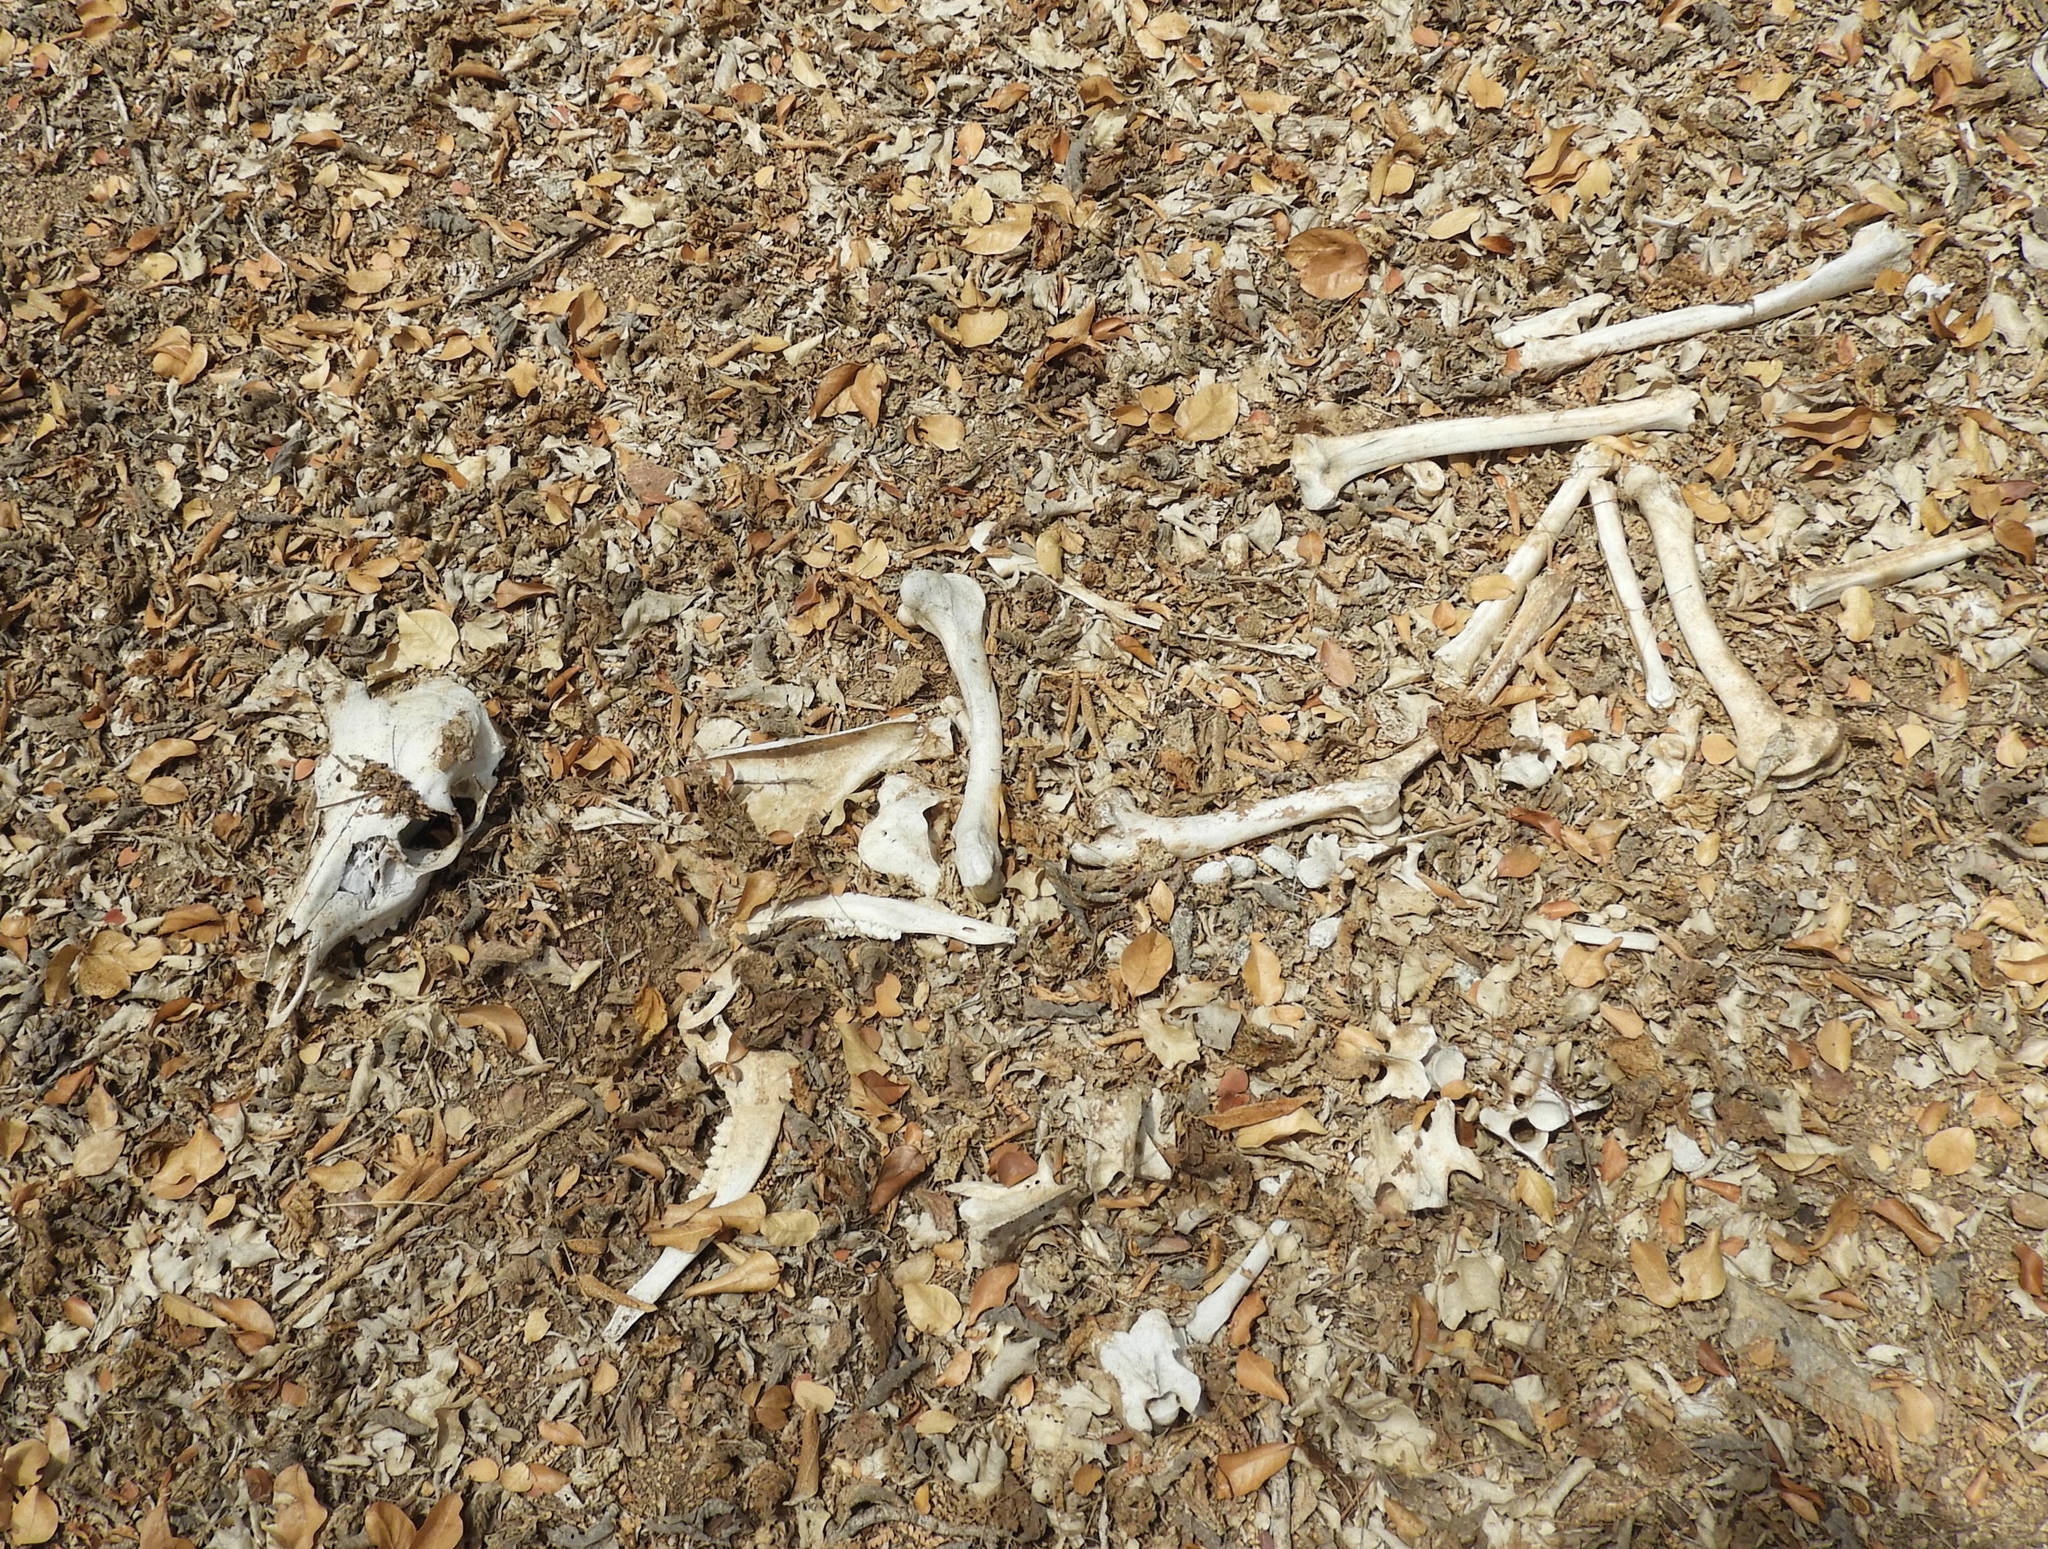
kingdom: Animalia
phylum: Chordata
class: Mammalia
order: Artiodactyla
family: Cervidae
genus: Odocoileus
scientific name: Odocoileus virginianus
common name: White-tailed deer
